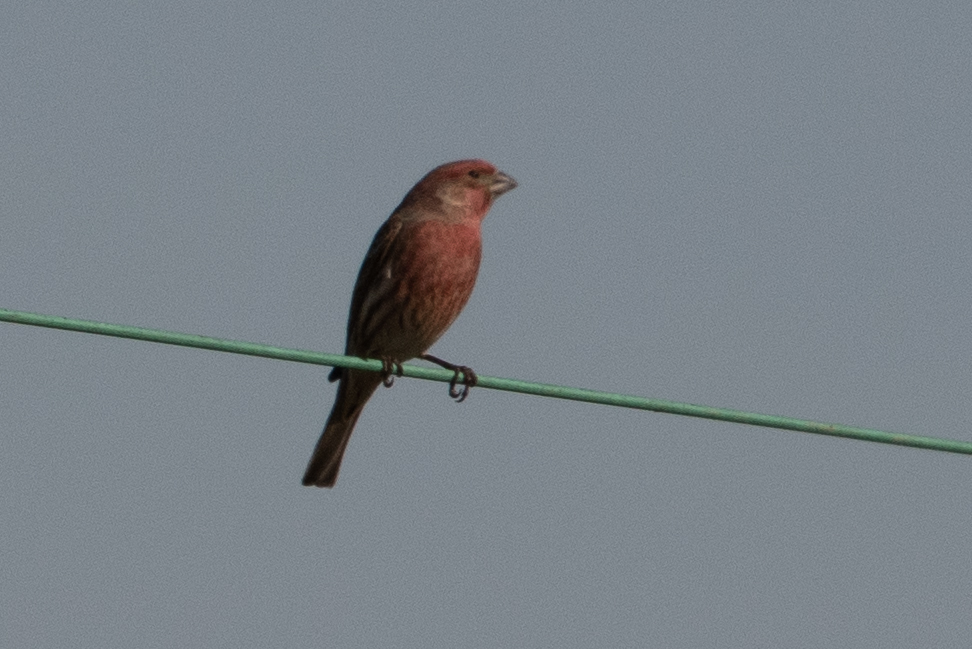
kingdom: Animalia
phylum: Chordata
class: Aves
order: Passeriformes
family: Fringillidae
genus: Haemorhous
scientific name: Haemorhous mexicanus
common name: House finch
